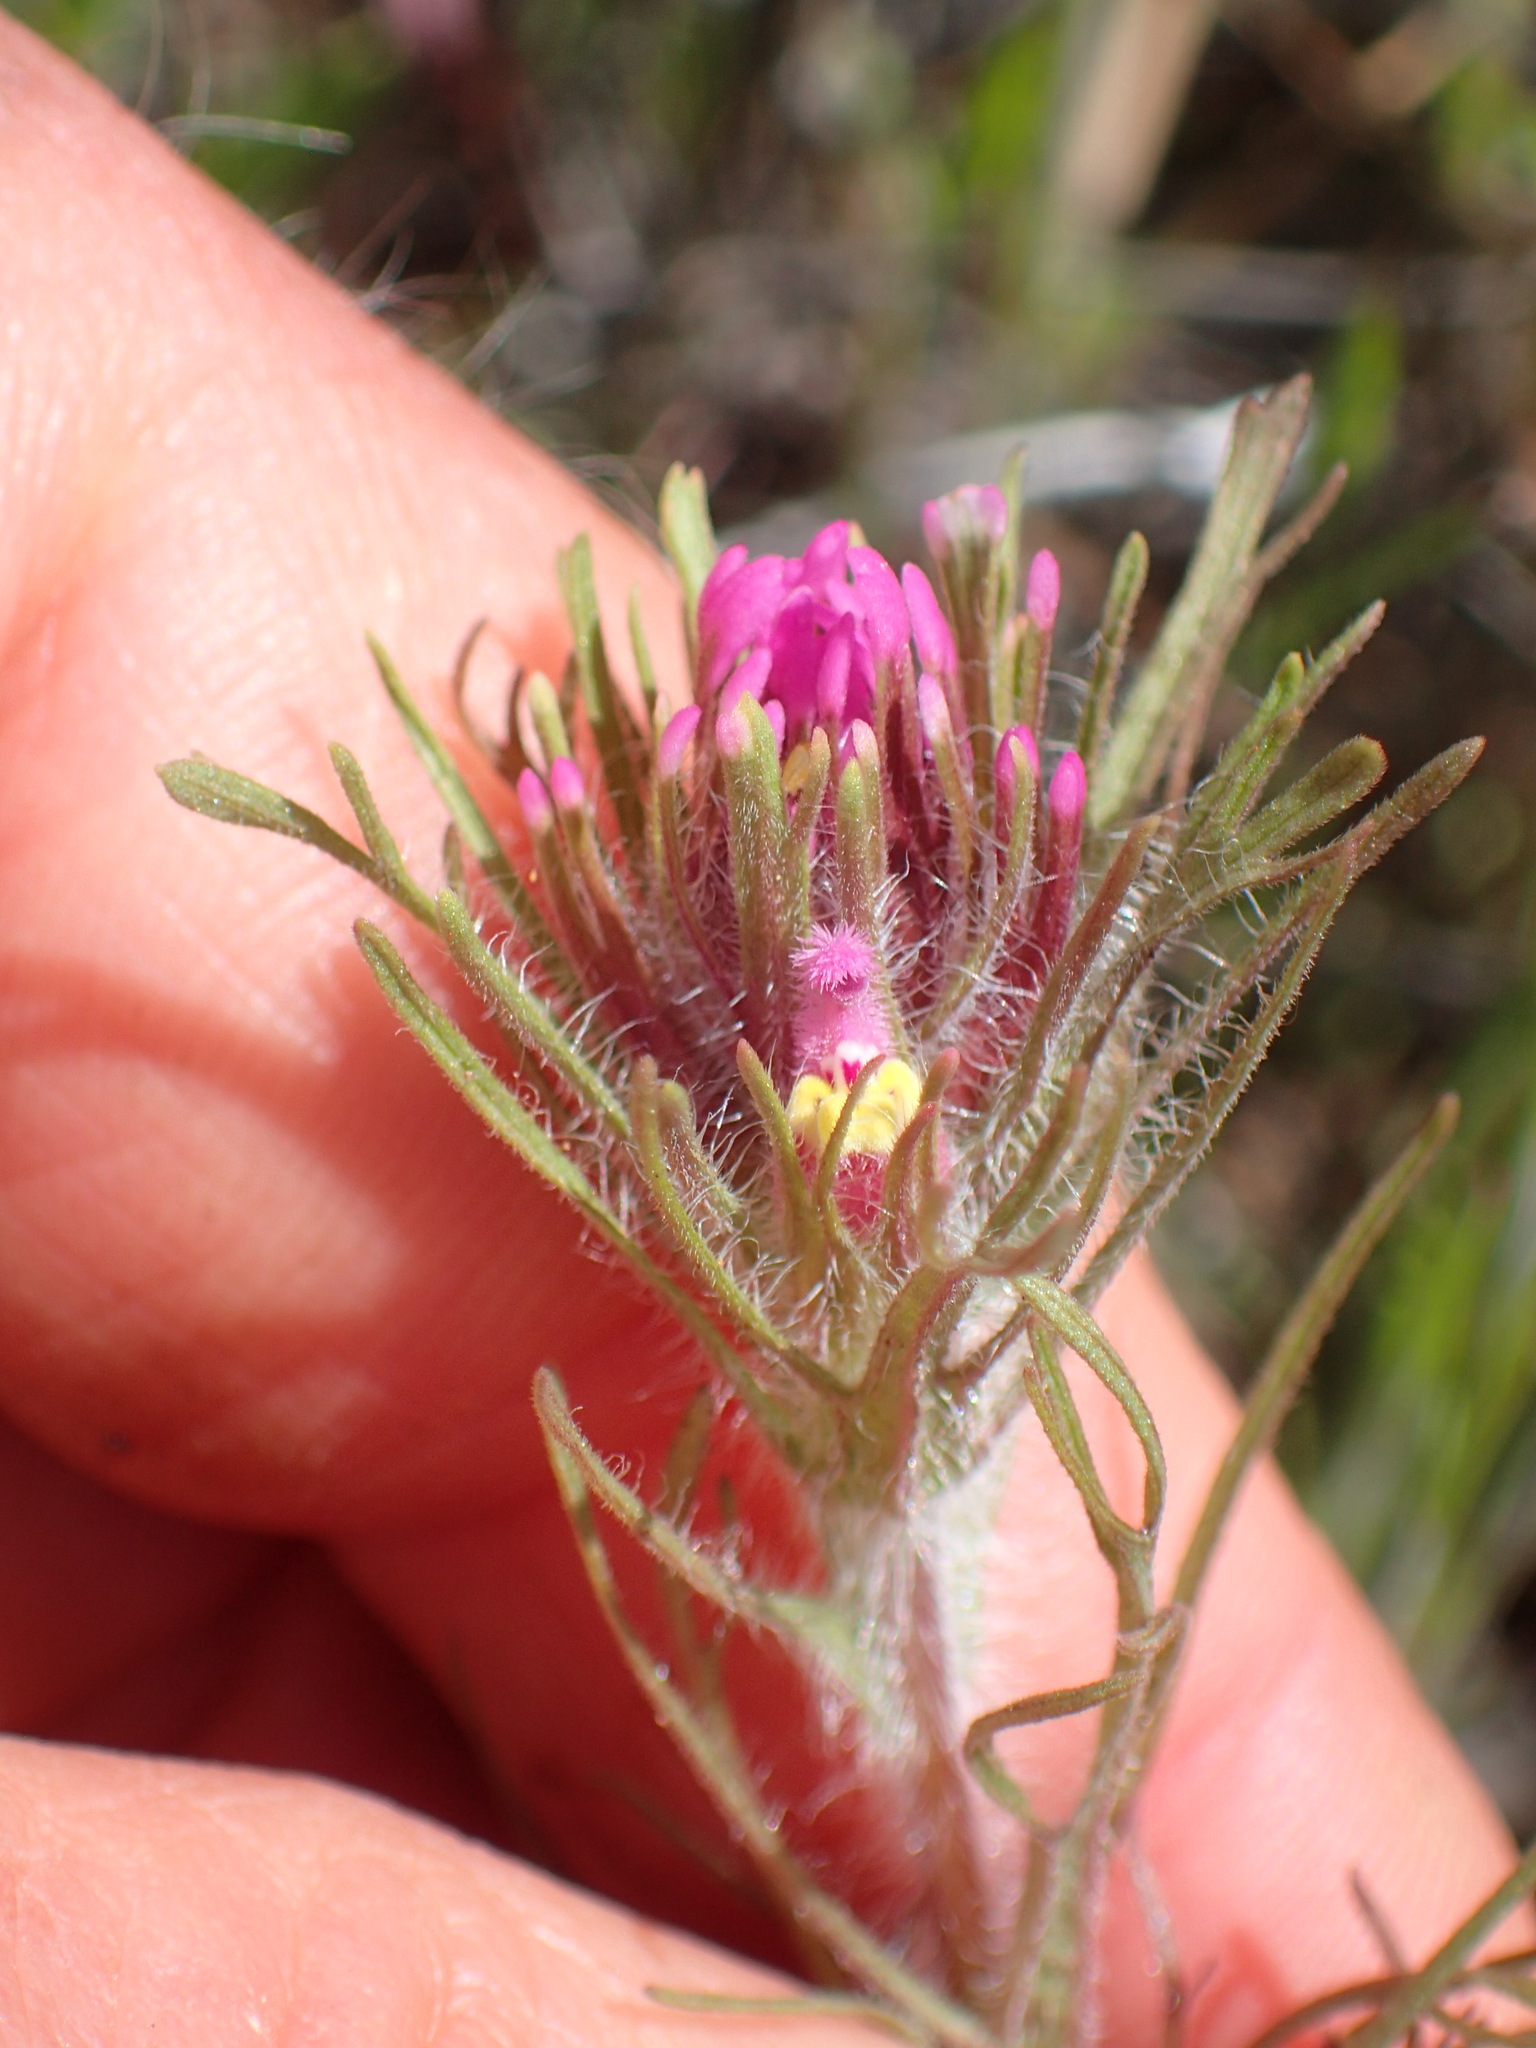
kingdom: Plantae
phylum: Tracheophyta
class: Magnoliopsida
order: Lamiales
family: Orobanchaceae
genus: Castilleja
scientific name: Castilleja exserta
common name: Purple owl-clover
